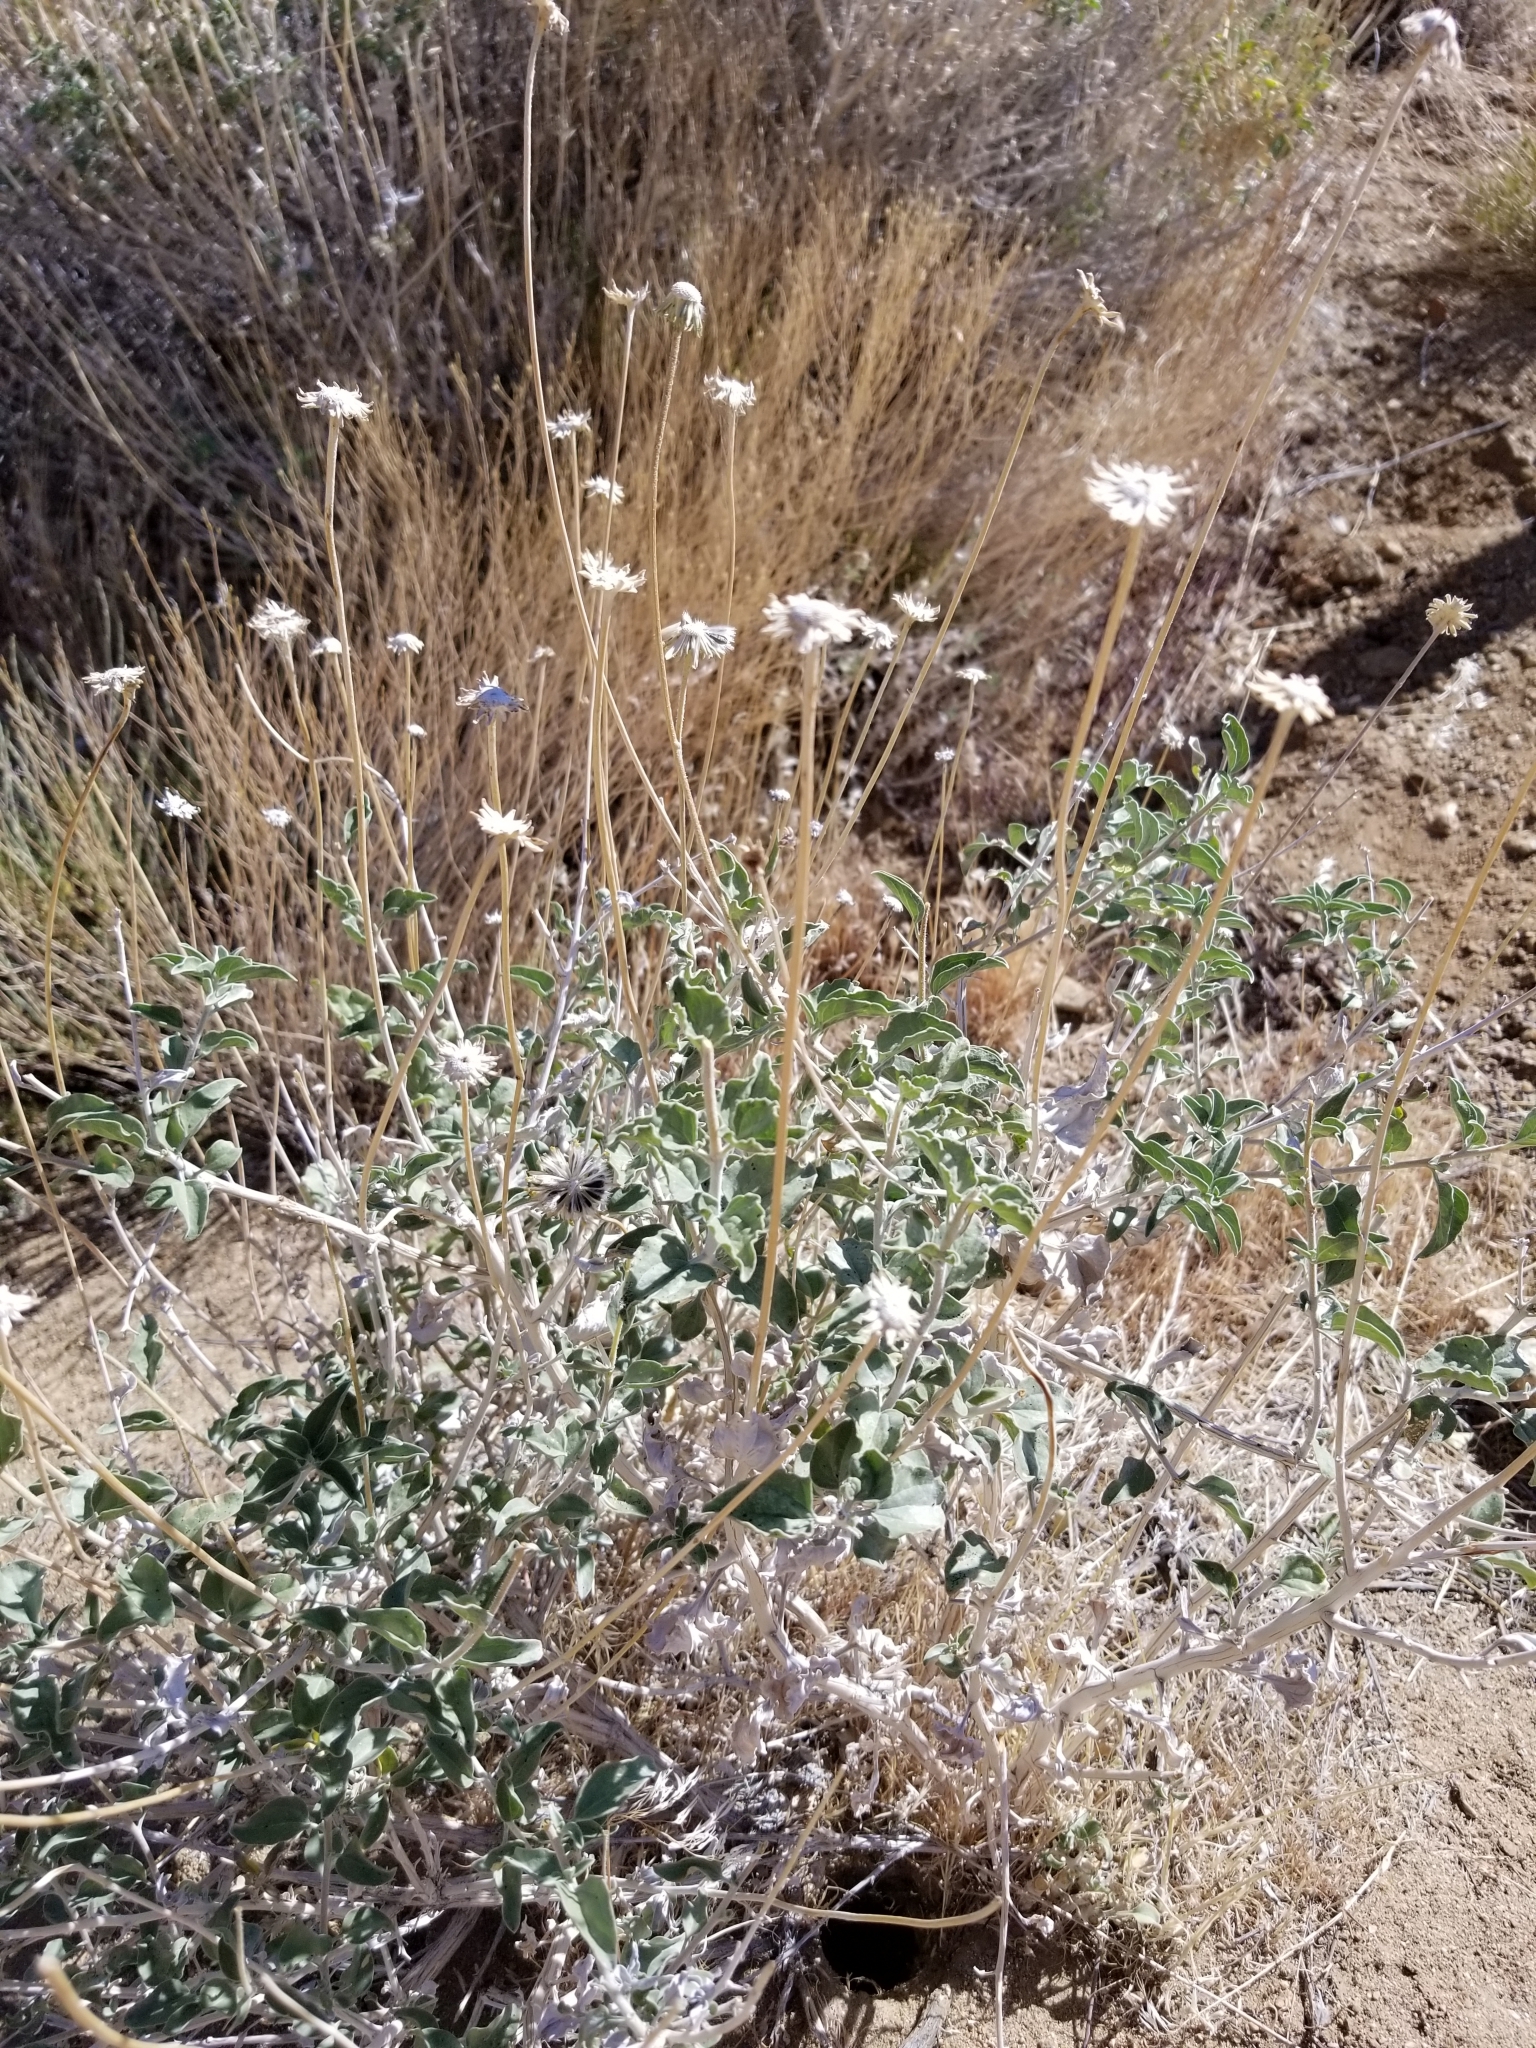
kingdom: Plantae
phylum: Tracheophyta
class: Magnoliopsida
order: Asterales
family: Asteraceae
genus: Encelia
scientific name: Encelia actoni
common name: Acton encelia
